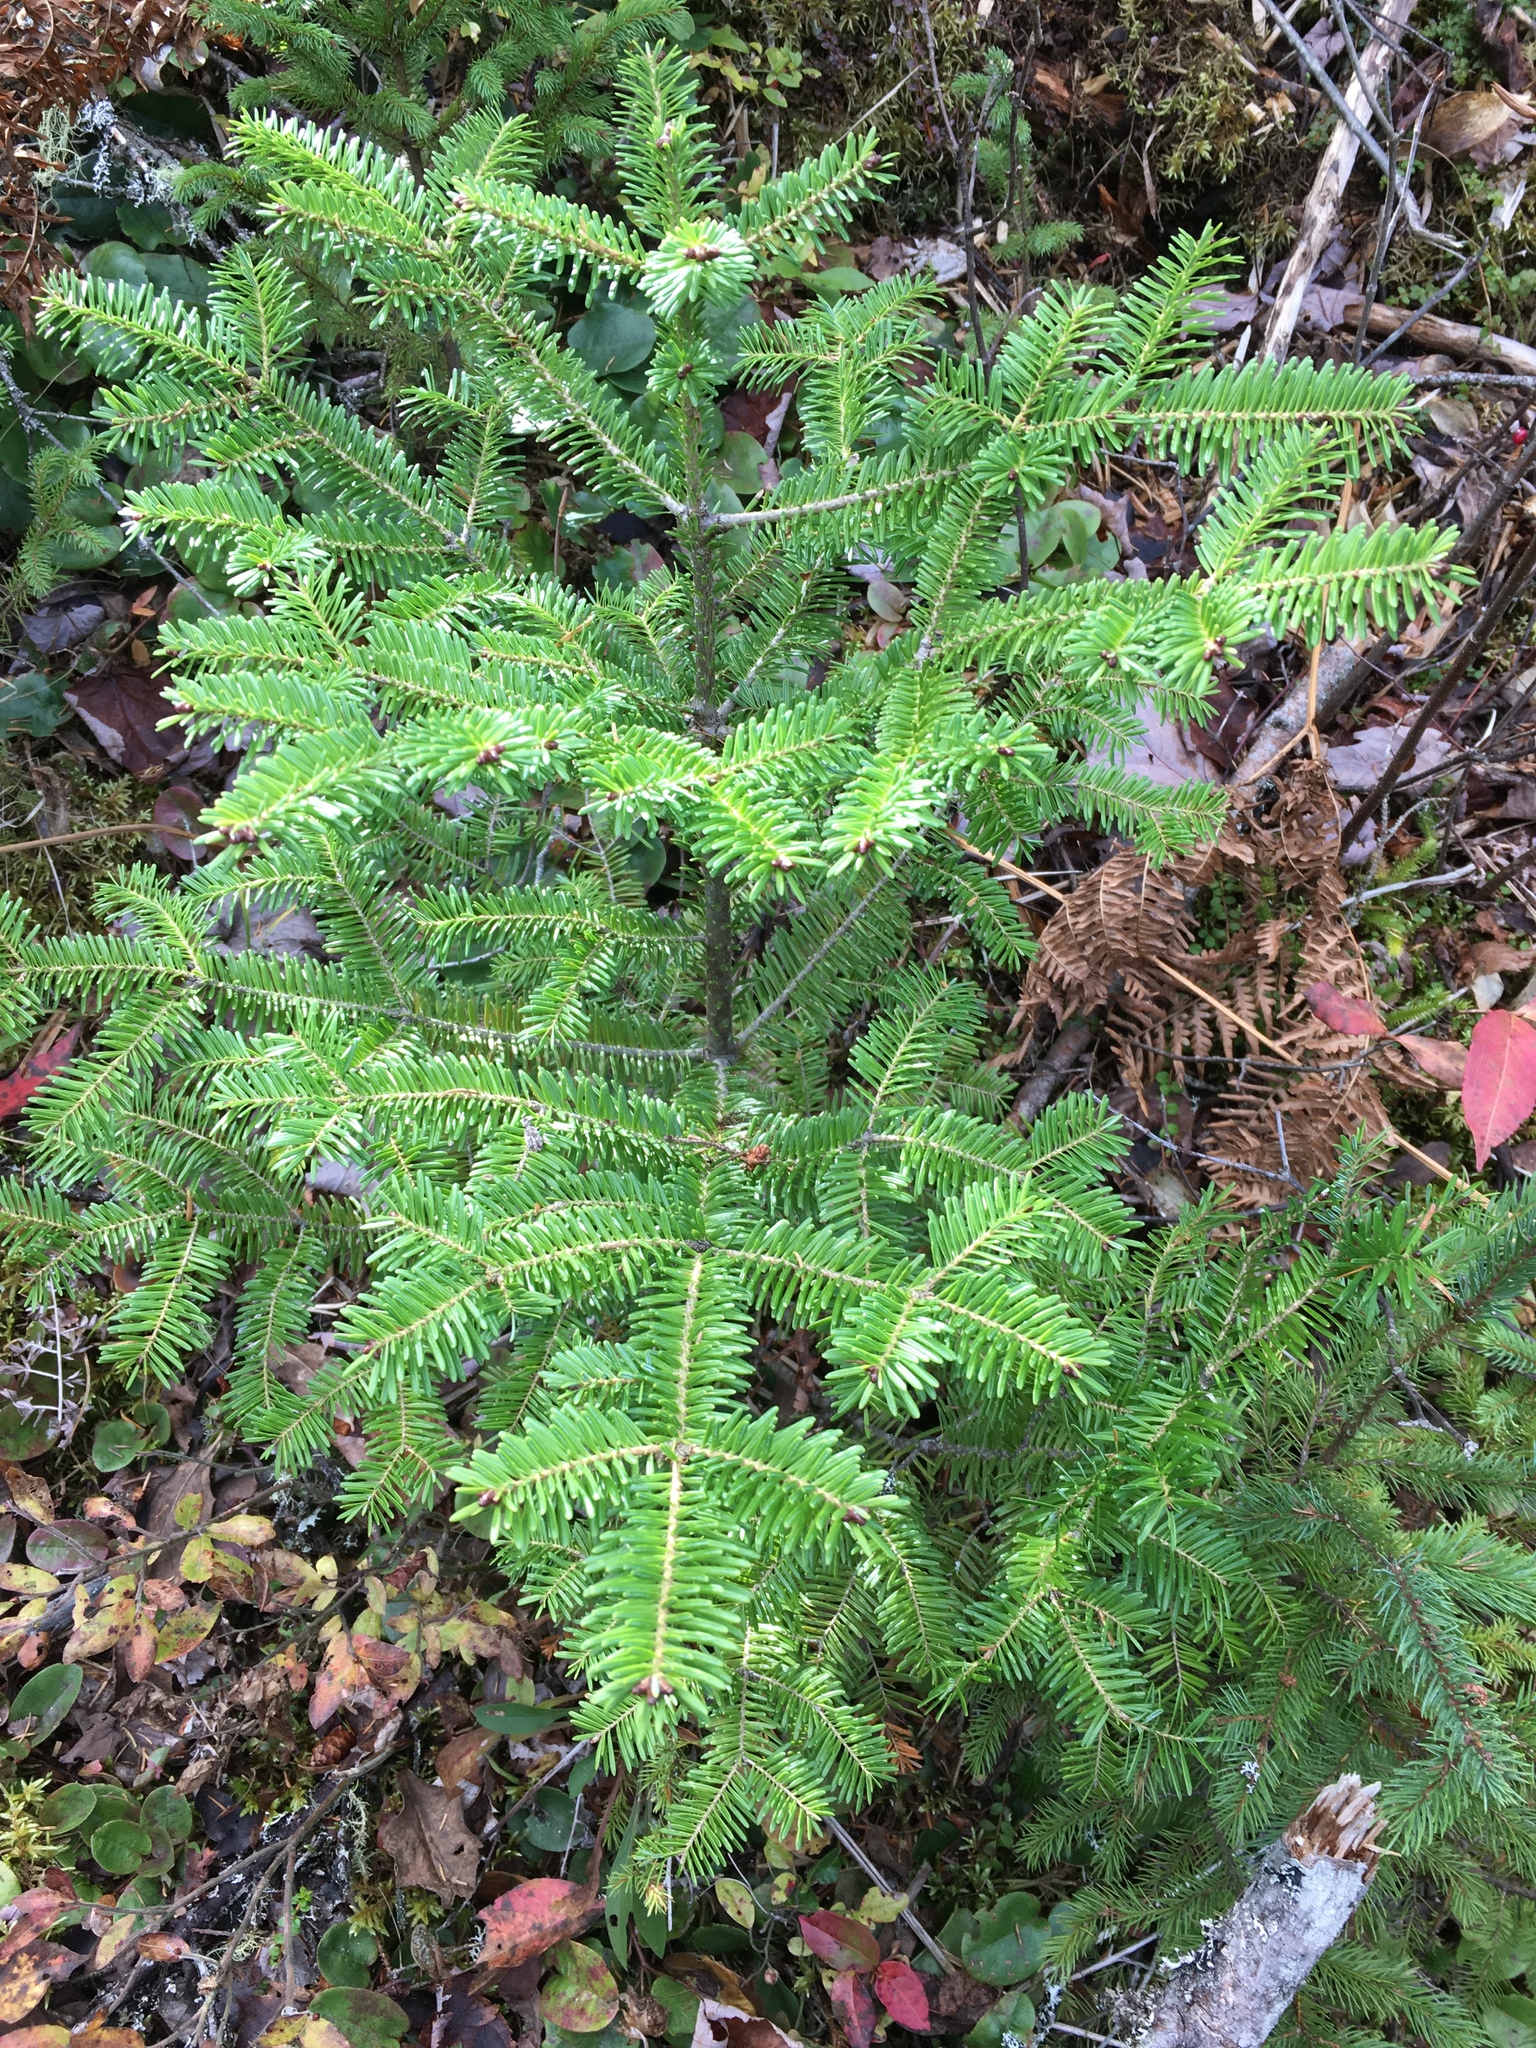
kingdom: Plantae
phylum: Tracheophyta
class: Pinopsida
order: Pinales
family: Pinaceae
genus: Abies
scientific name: Abies balsamea
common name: Balsam fir
